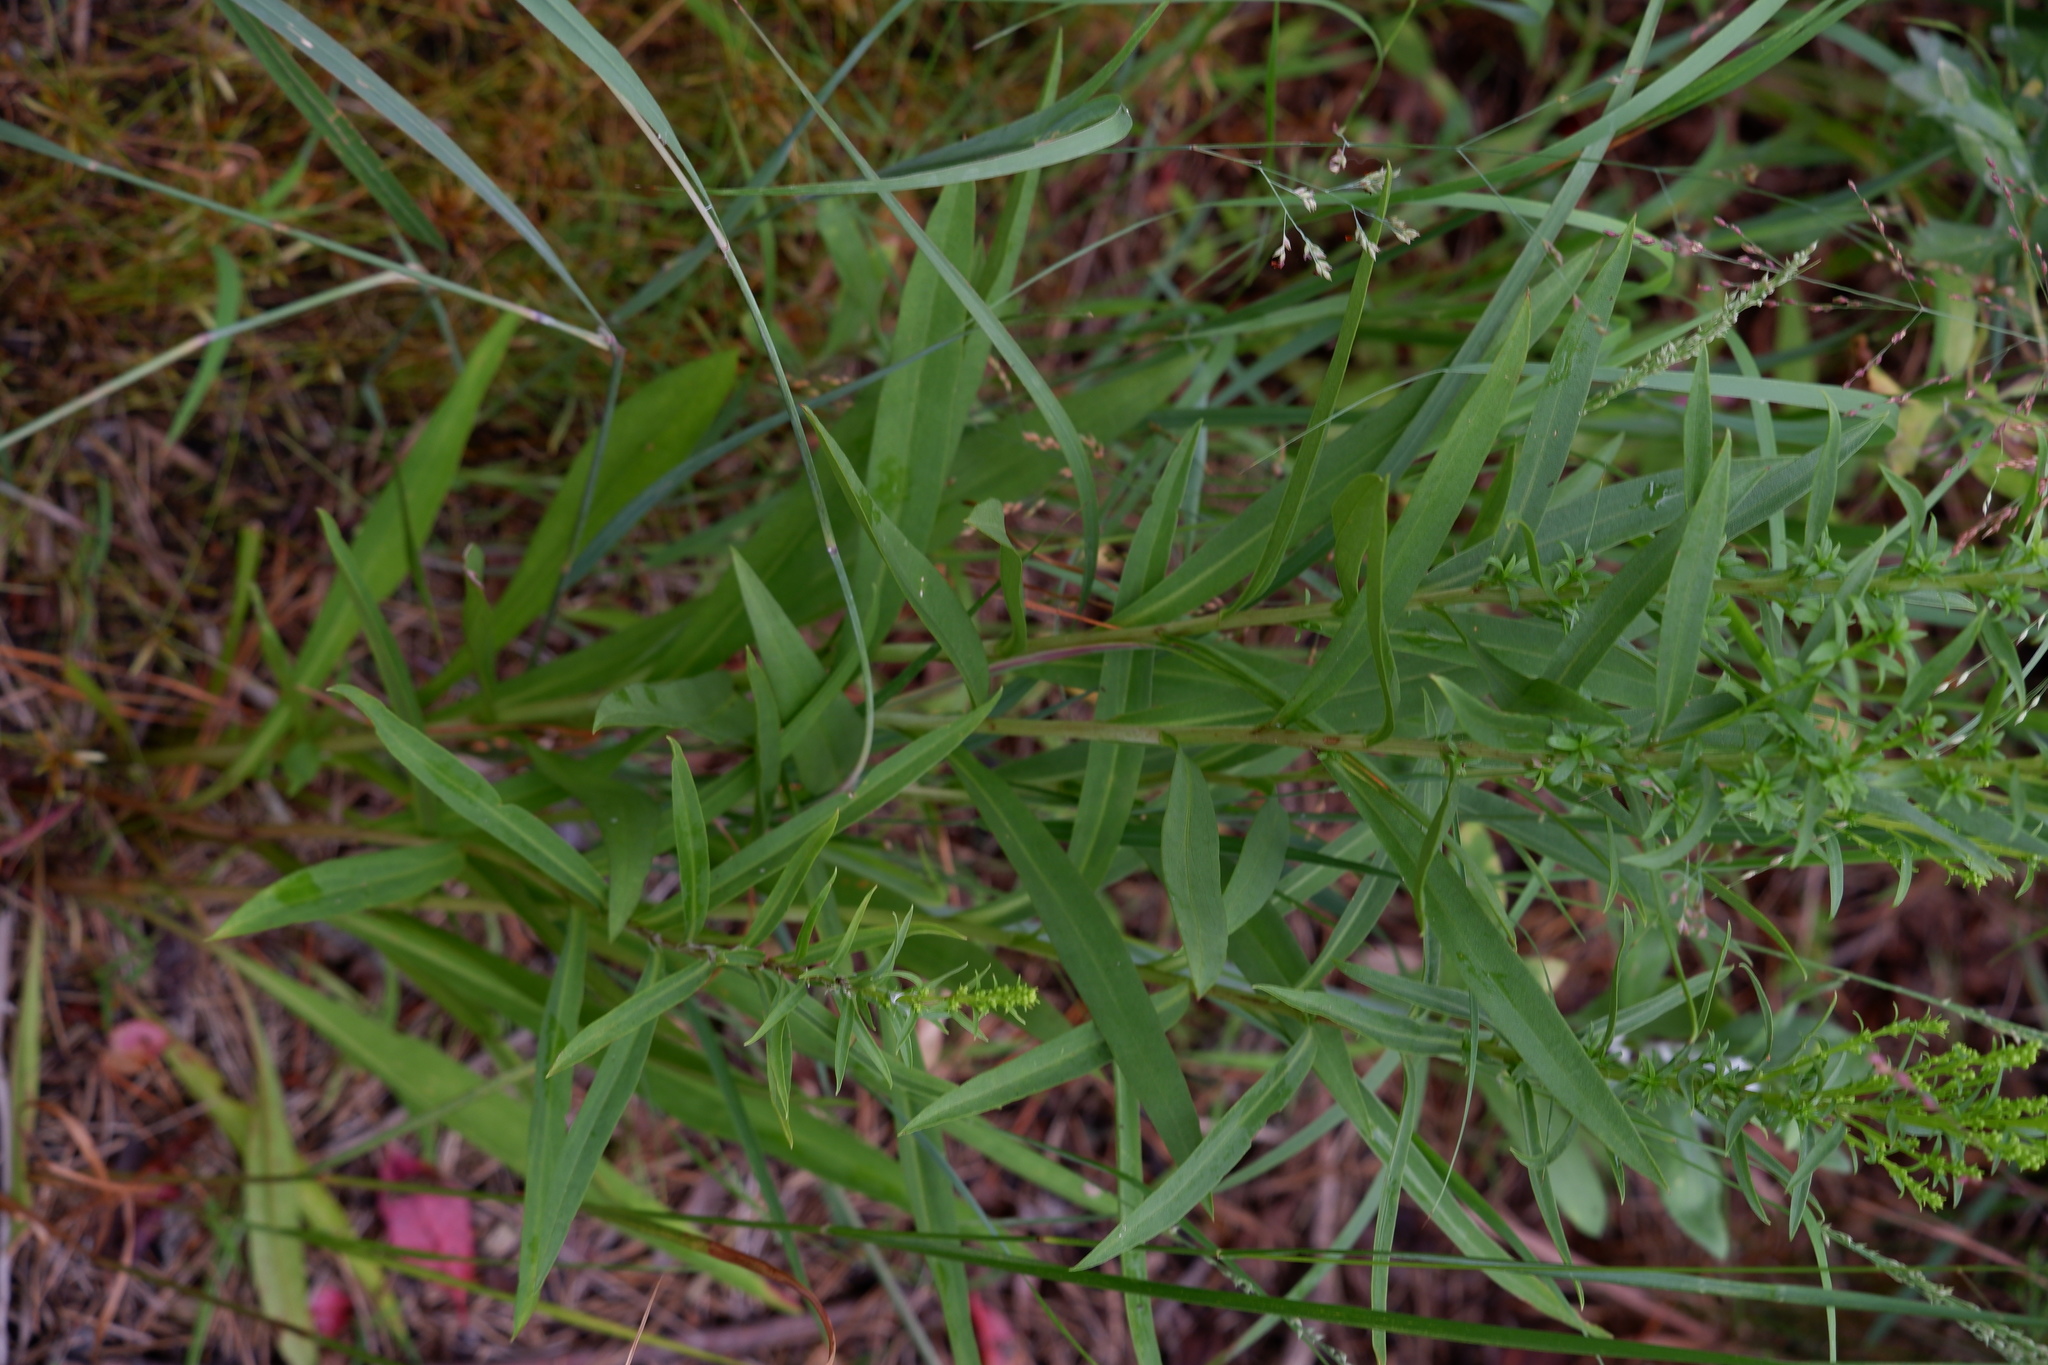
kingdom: Plantae
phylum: Tracheophyta
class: Magnoliopsida
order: Asterales
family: Asteraceae
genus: Solidago
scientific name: Solidago sempervirens
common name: Salt-marsh goldenrod
